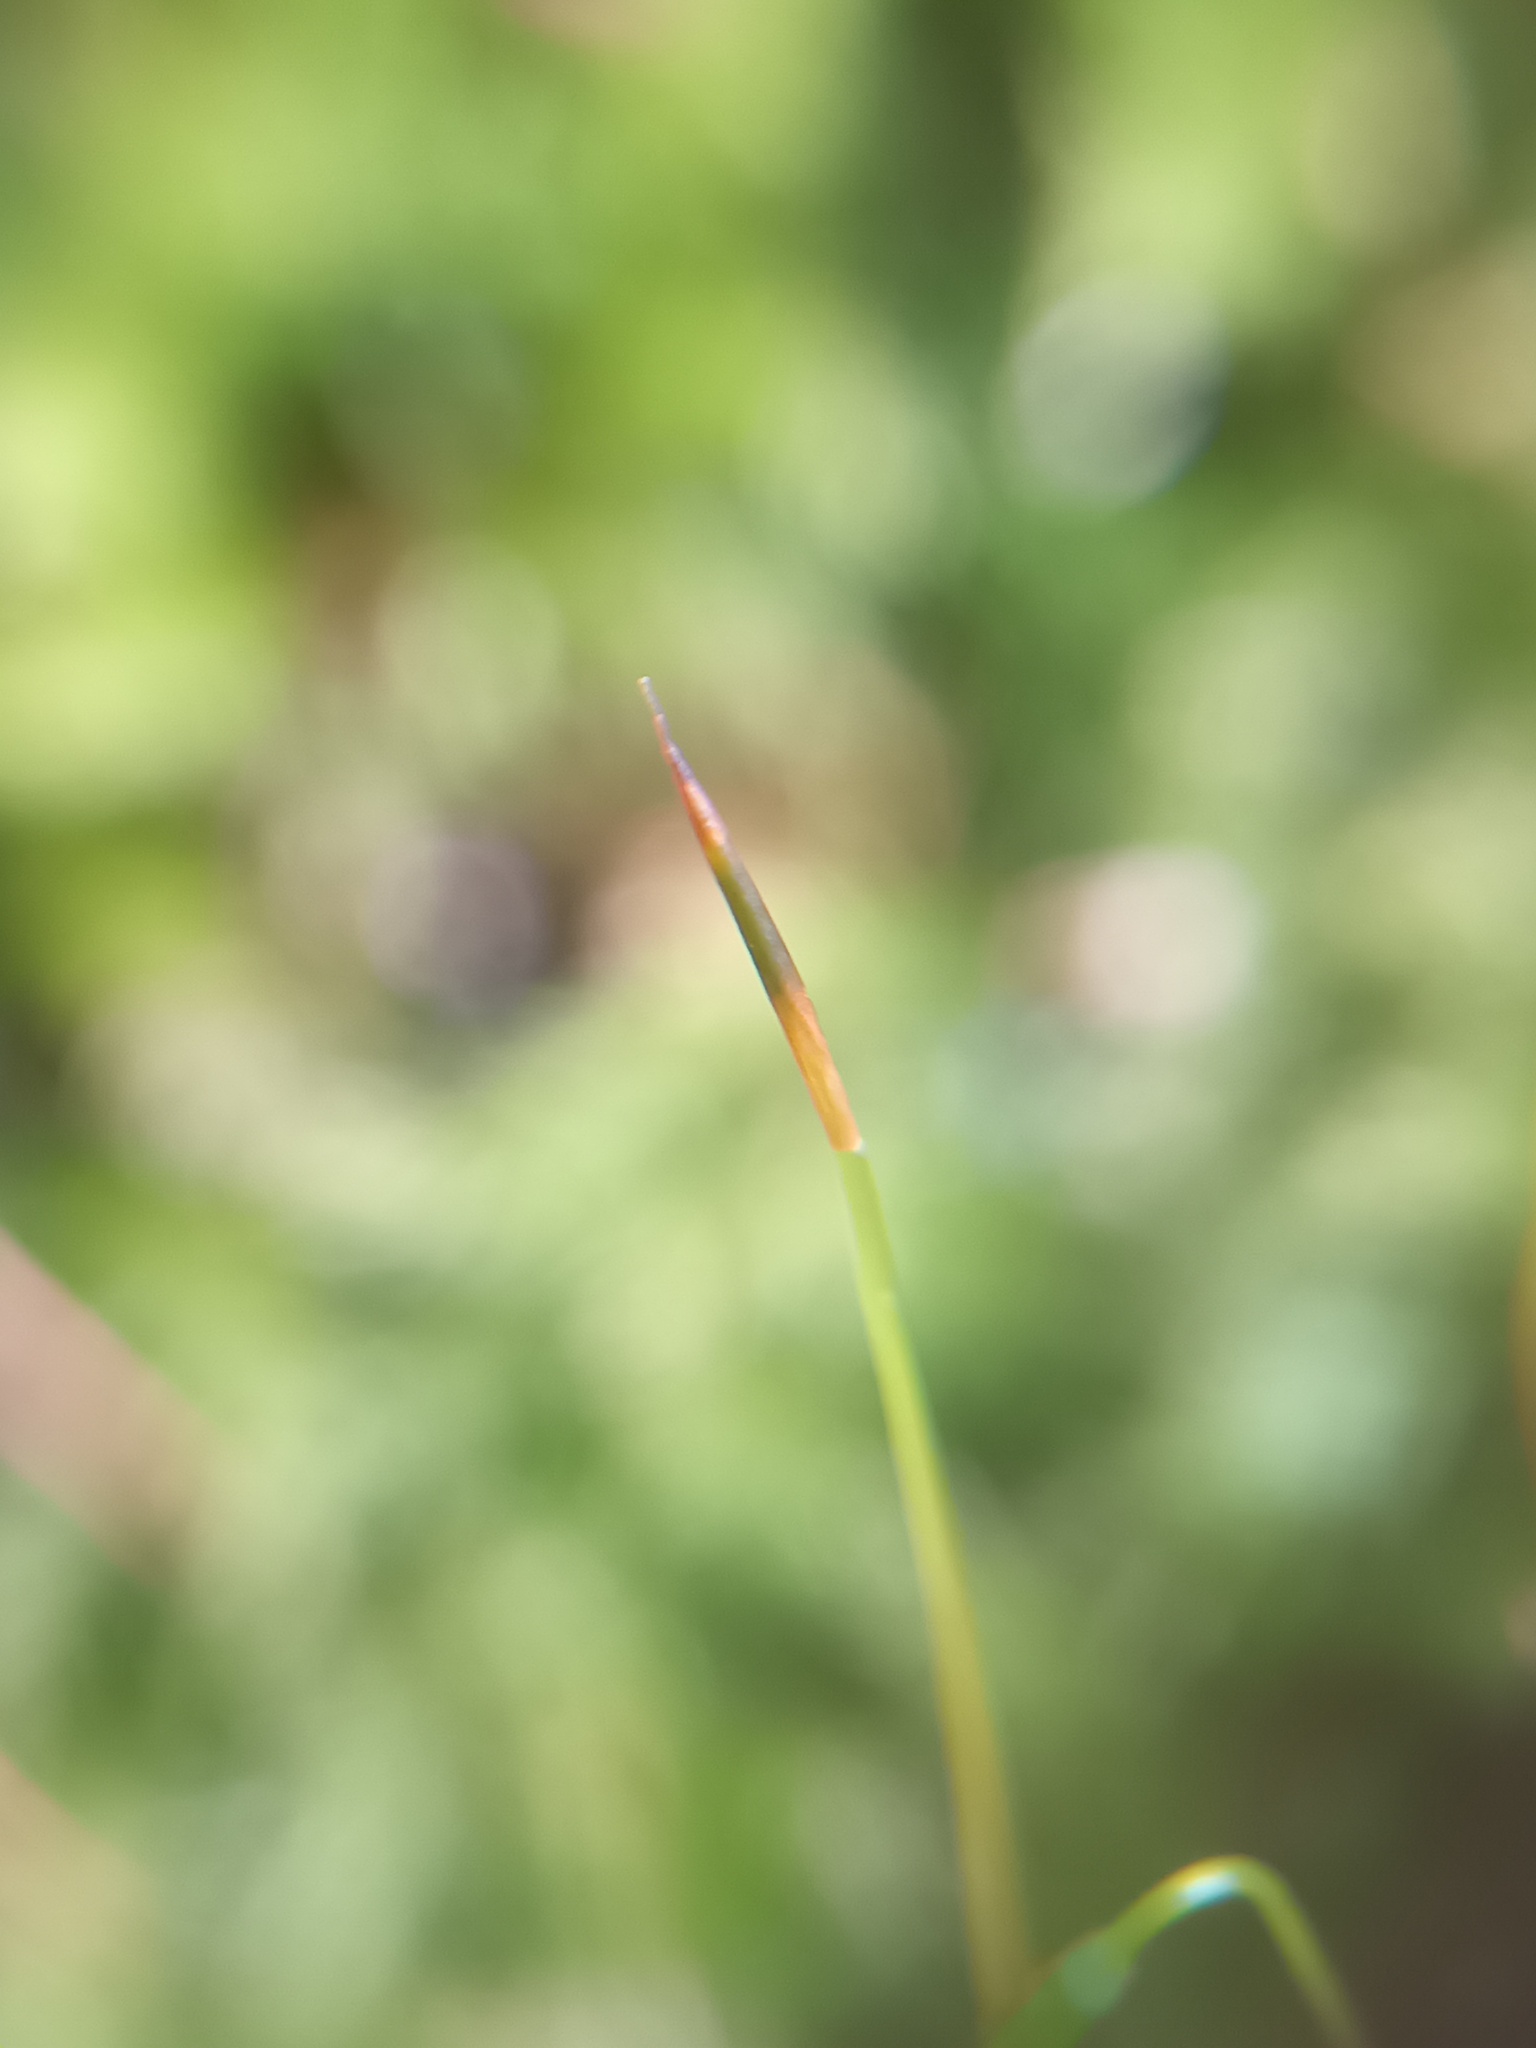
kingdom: Plantae
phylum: Bryophyta
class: Bryopsida
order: Bryales
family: Mniaceae
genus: Mnium
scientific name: Mnium hornum
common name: Swan's-neck leafy moss
